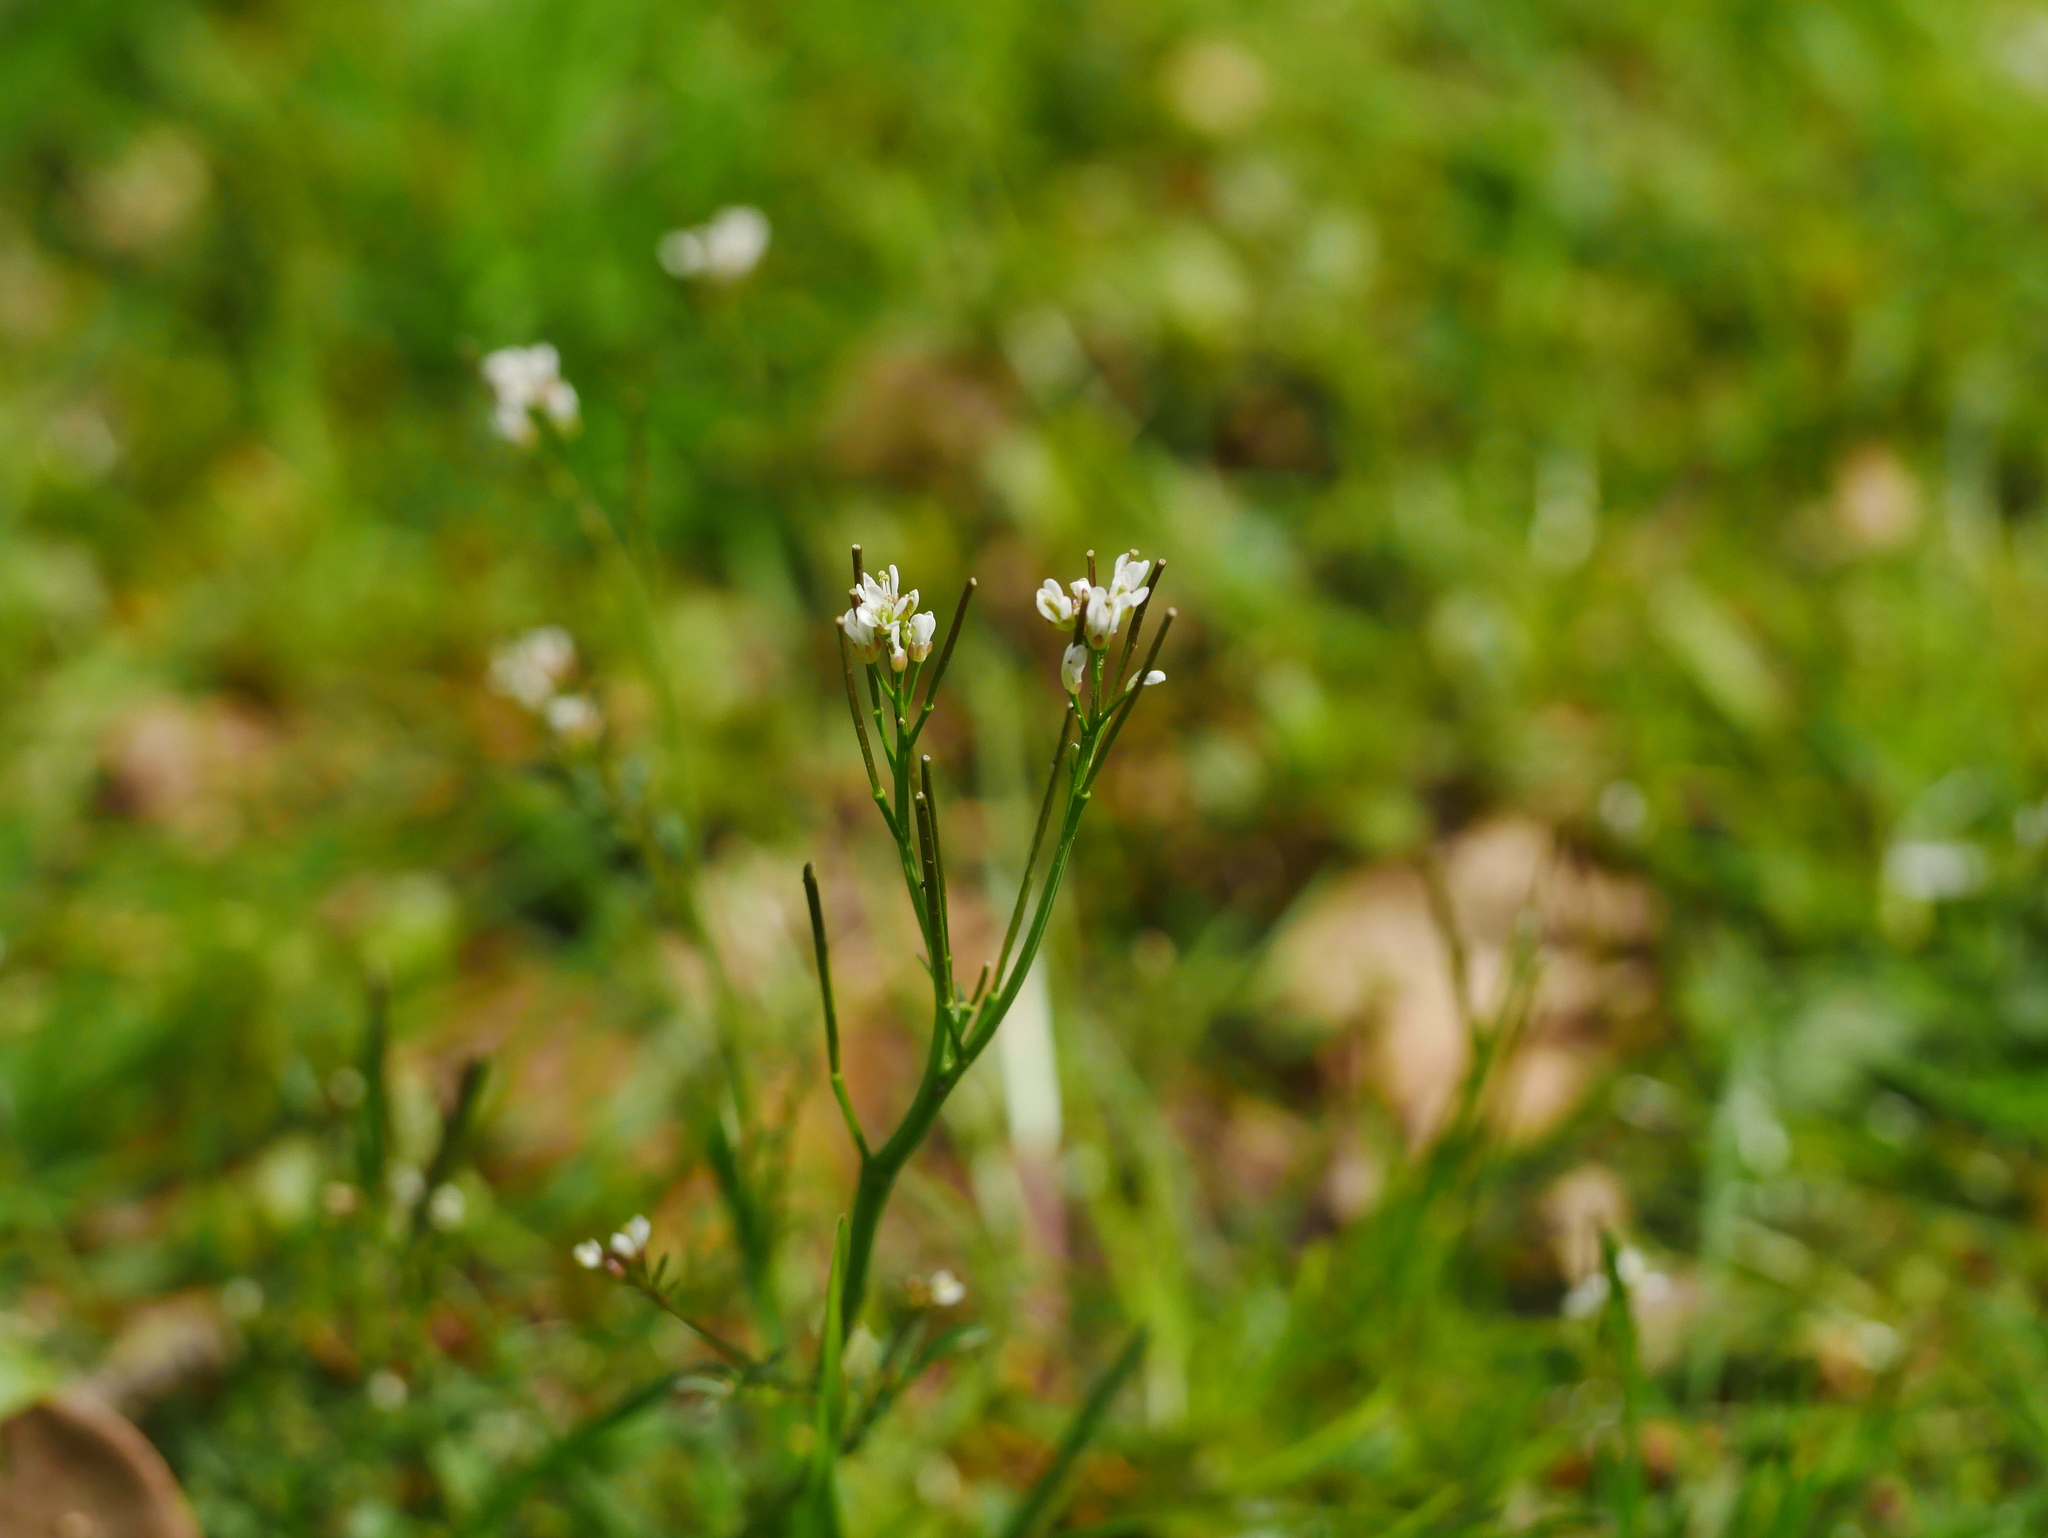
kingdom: Plantae
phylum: Tracheophyta
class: Magnoliopsida
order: Brassicales
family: Brassicaceae
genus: Cardamine
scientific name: Cardamine hirsuta
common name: Hairy bittercress
